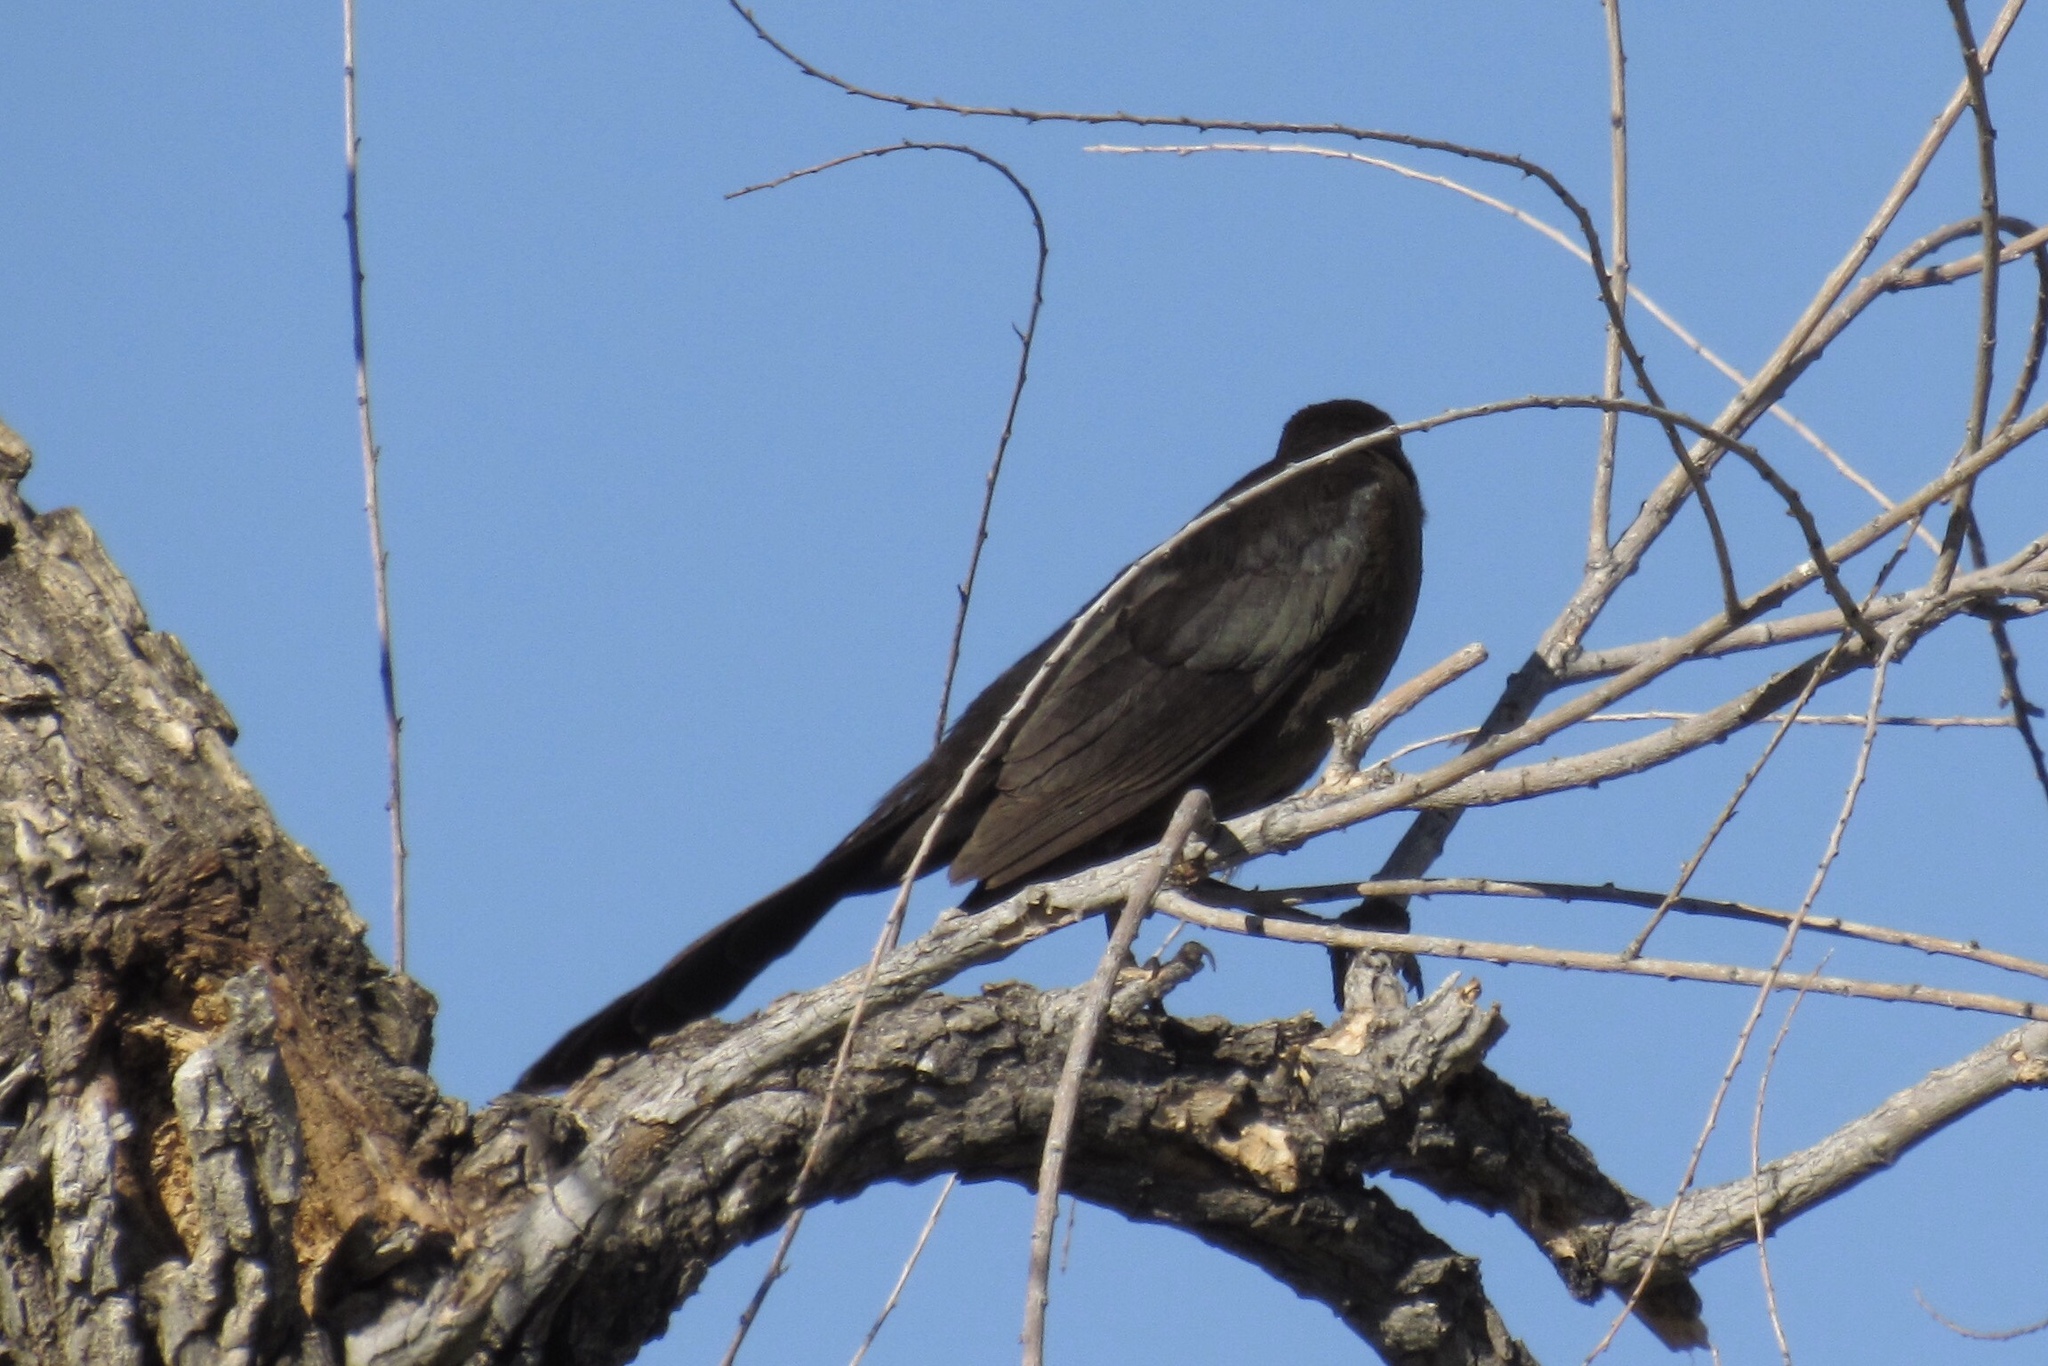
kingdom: Animalia
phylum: Chordata
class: Aves
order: Passeriformes
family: Icteridae
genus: Quiscalus
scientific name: Quiscalus mexicanus
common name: Great-tailed grackle
